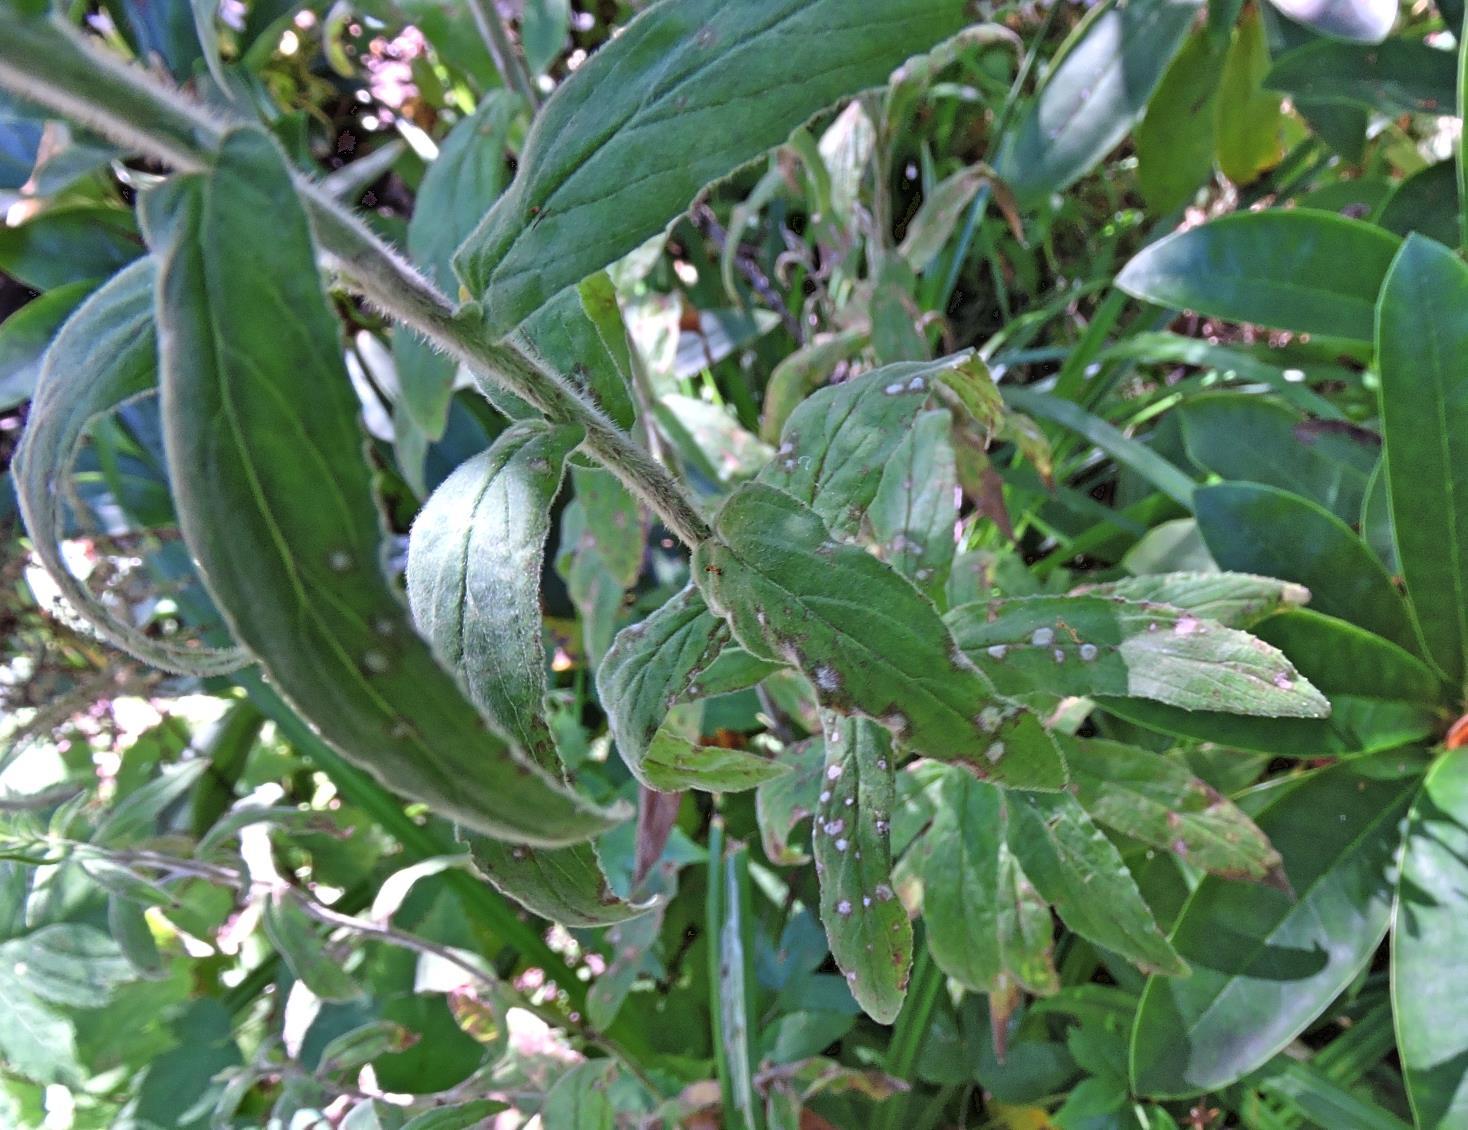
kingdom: Fungi
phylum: Ascomycota
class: Leotiomycetes
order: Helotiales
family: Erysiphaceae
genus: Podosphaera
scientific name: Podosphaera epilobii
